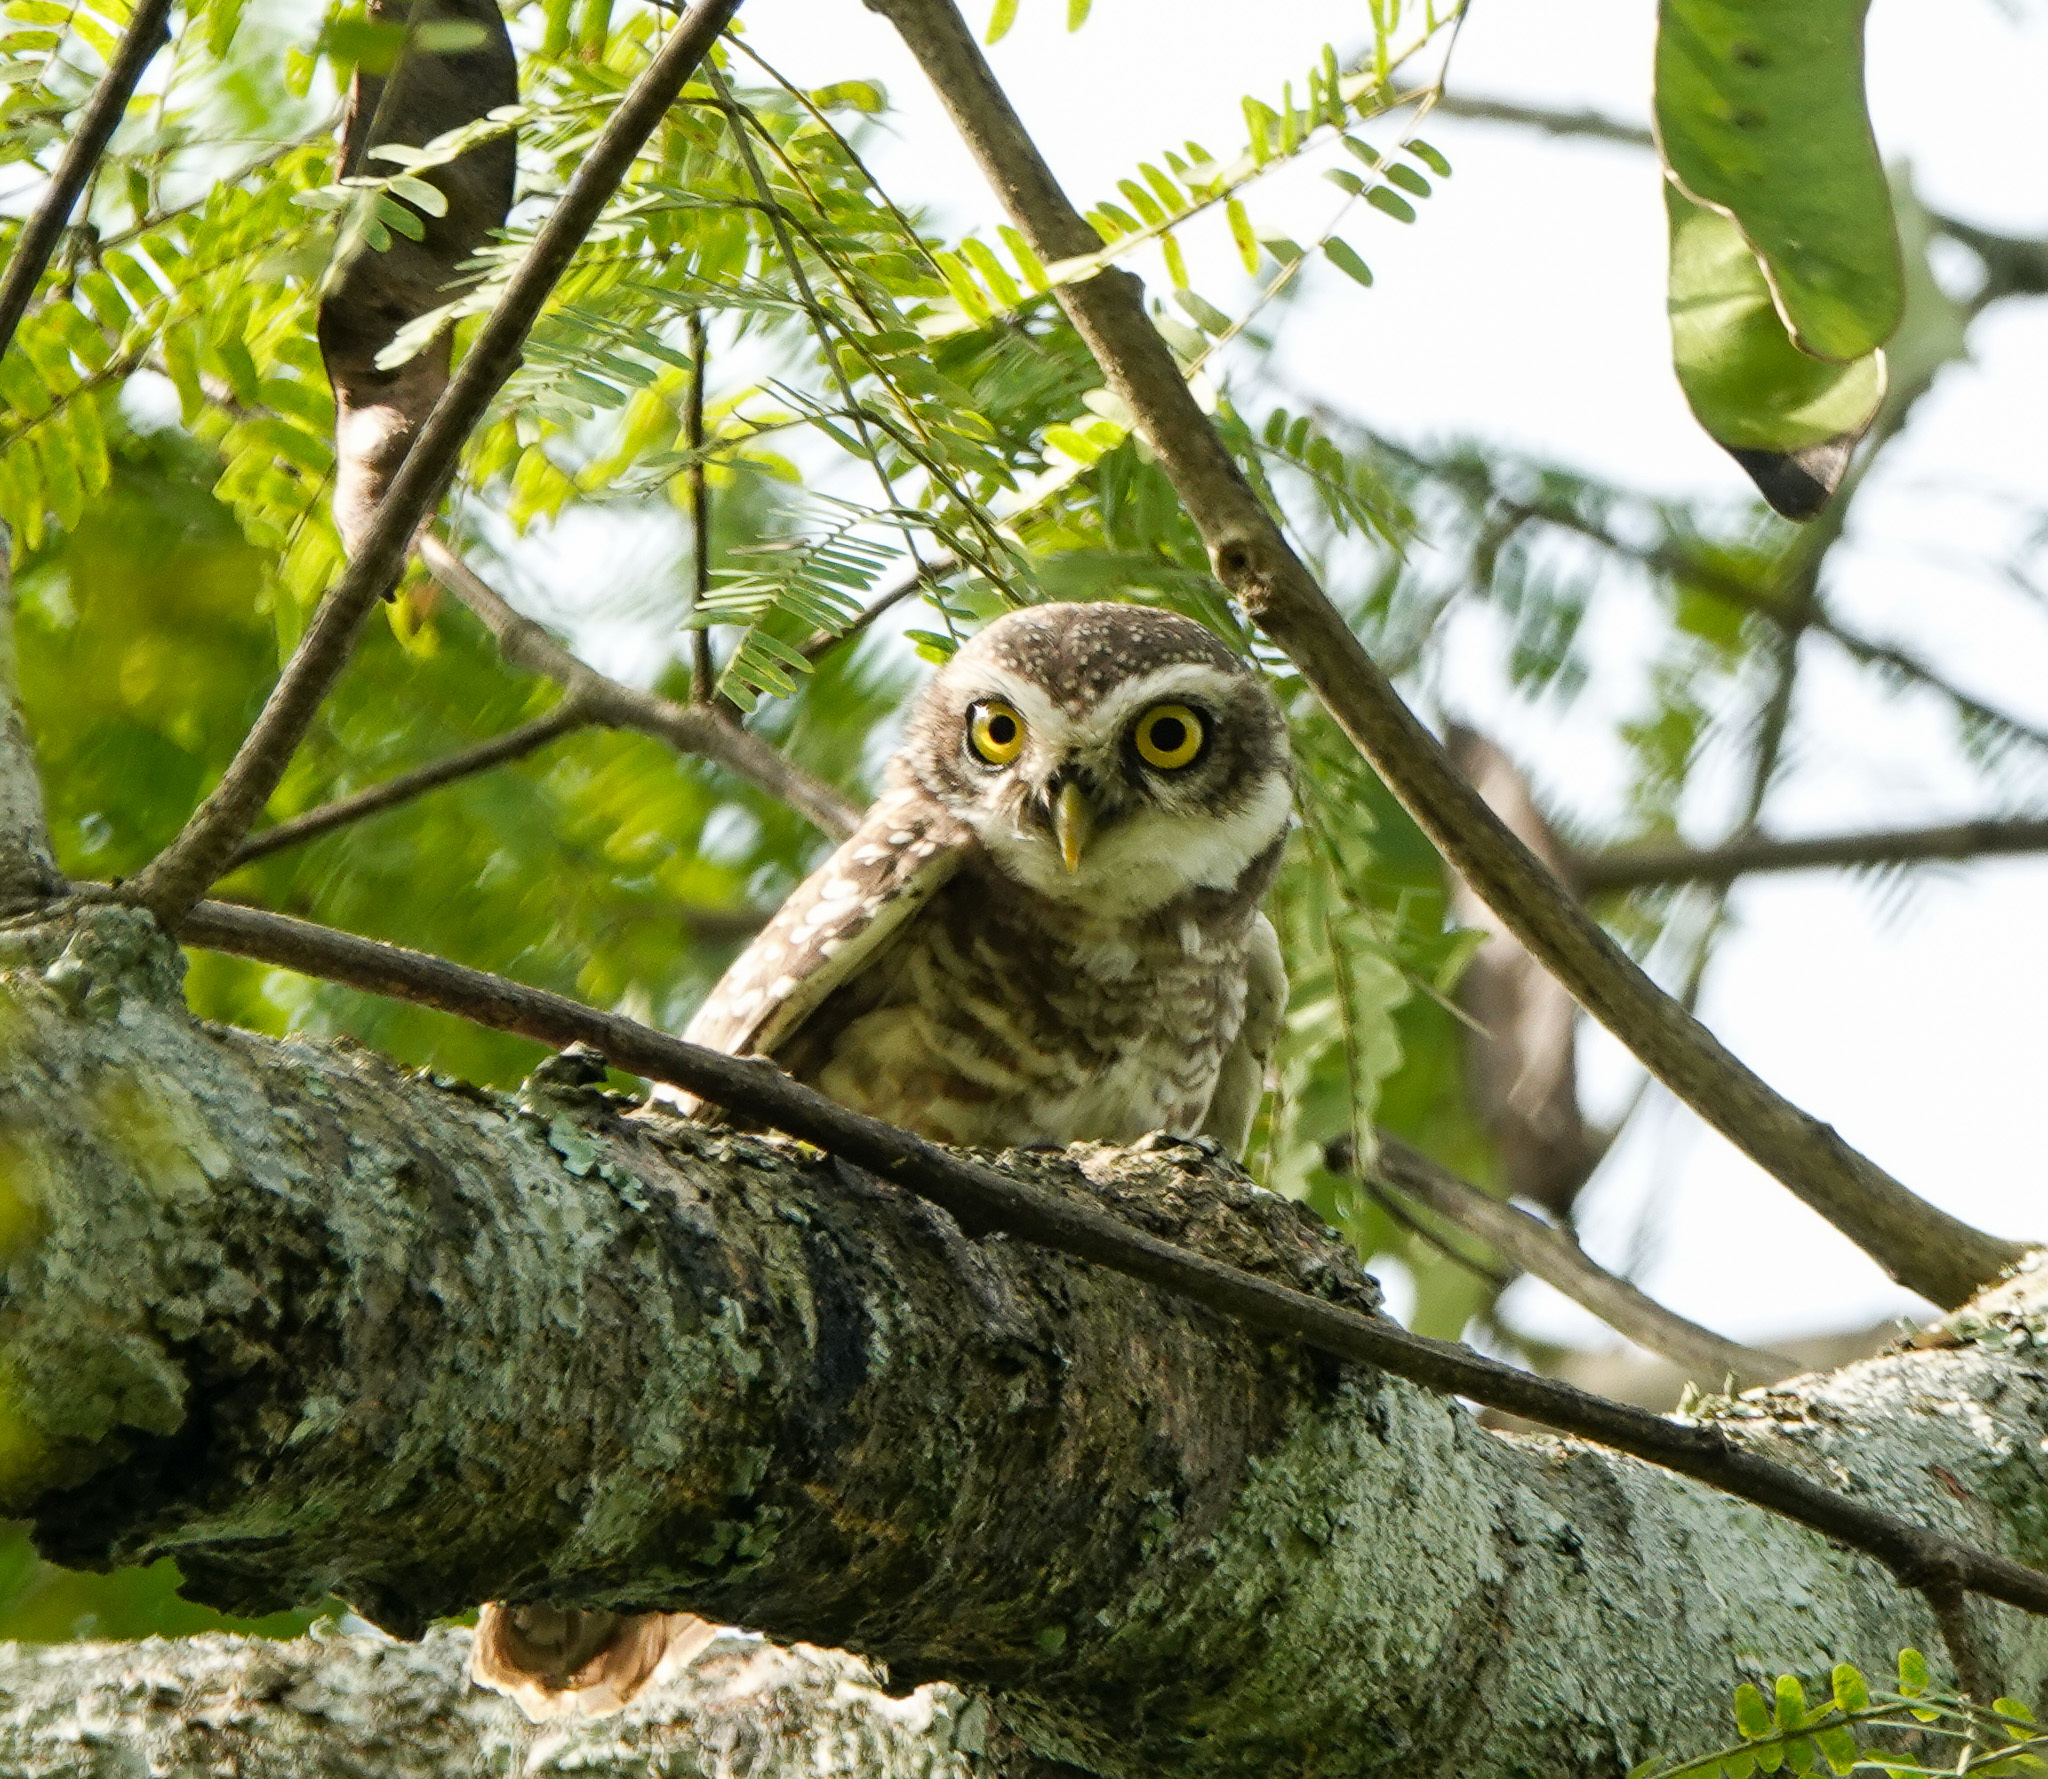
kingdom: Animalia
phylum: Chordata
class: Aves
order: Strigiformes
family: Strigidae
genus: Athene
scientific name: Athene brama
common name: Spotted owlet
